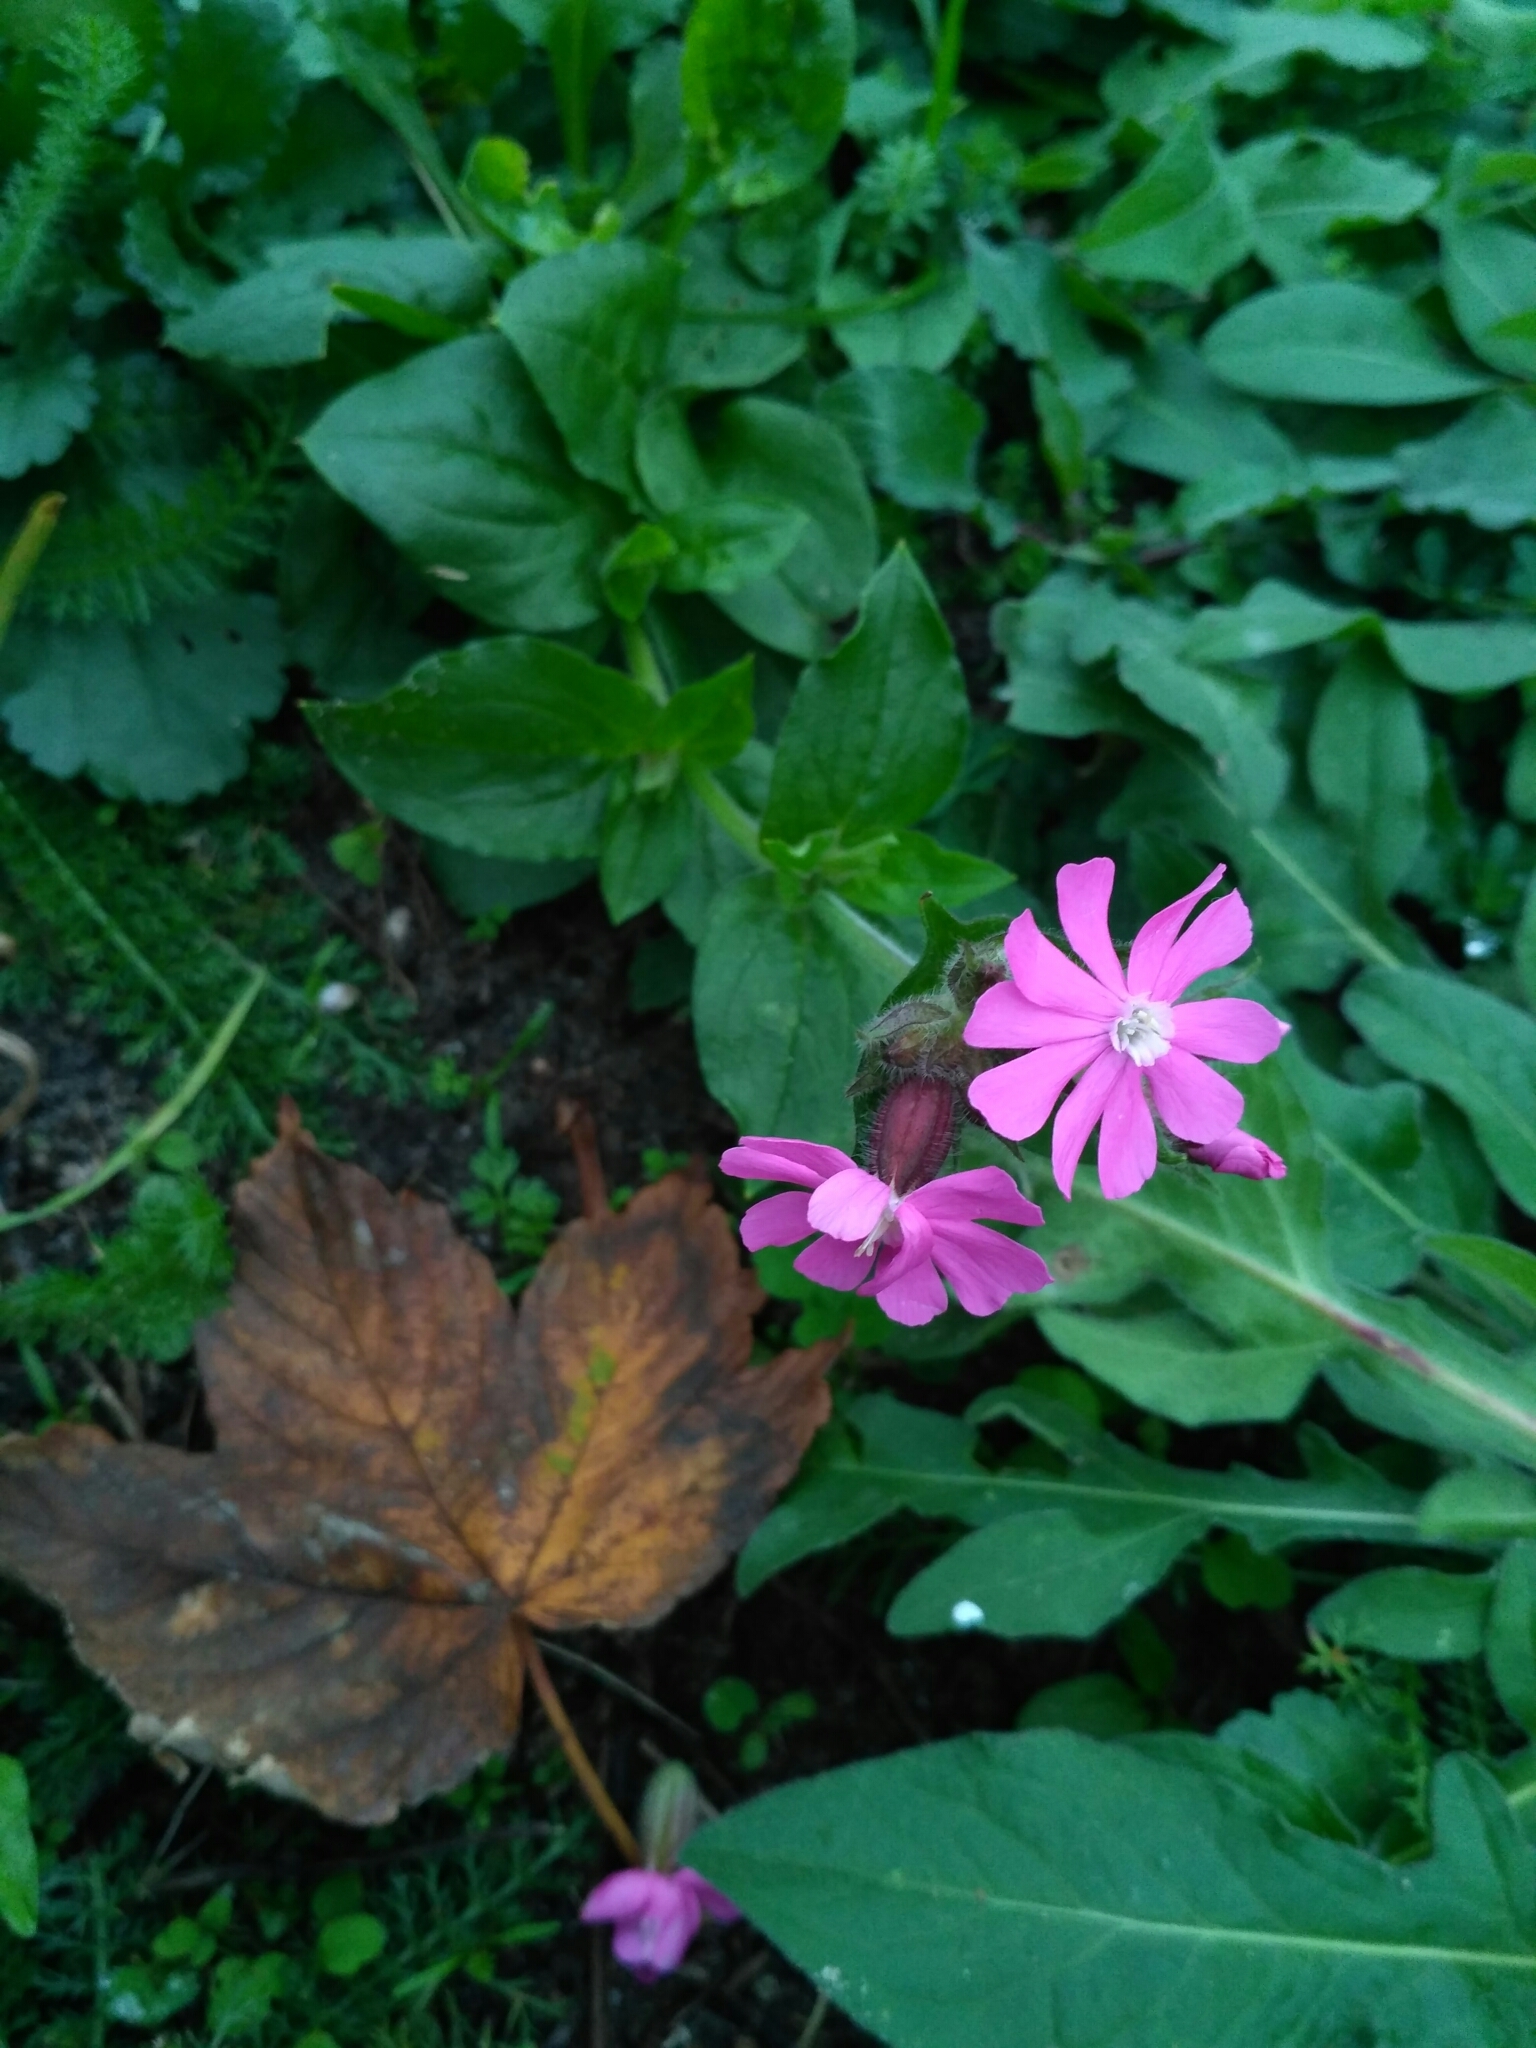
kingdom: Plantae
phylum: Tracheophyta
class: Magnoliopsida
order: Caryophyllales
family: Caryophyllaceae
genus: Silene
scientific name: Silene dioica
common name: Red campion
